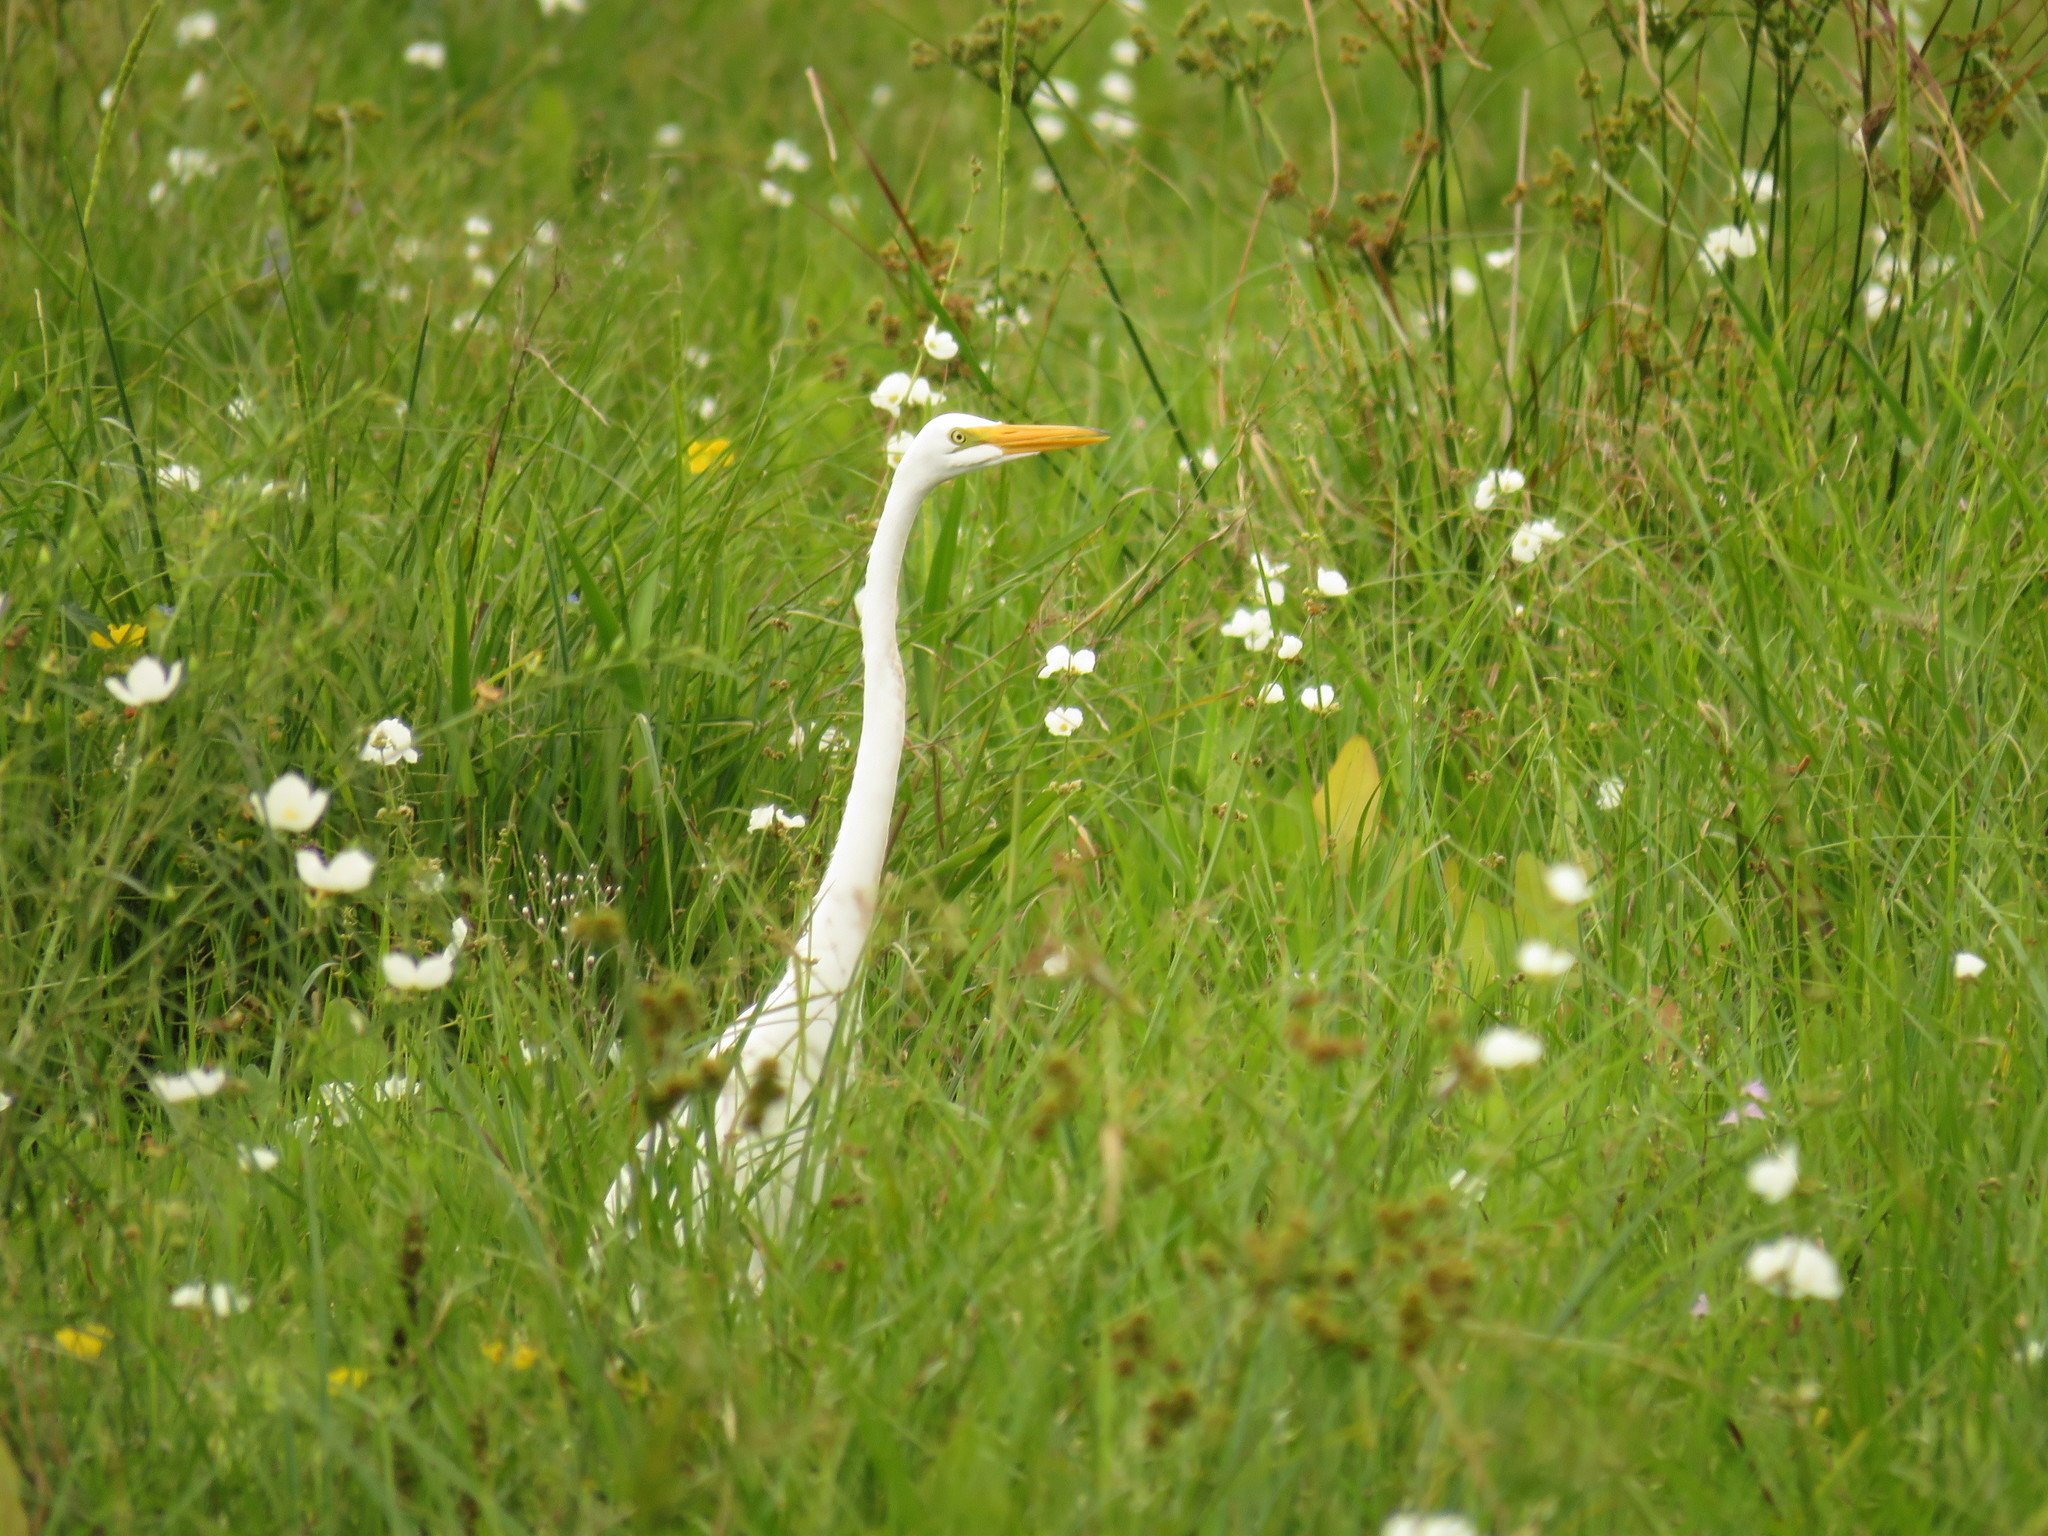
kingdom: Animalia
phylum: Chordata
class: Aves
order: Pelecaniformes
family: Ardeidae
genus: Ardea
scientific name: Ardea alba
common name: Great egret
